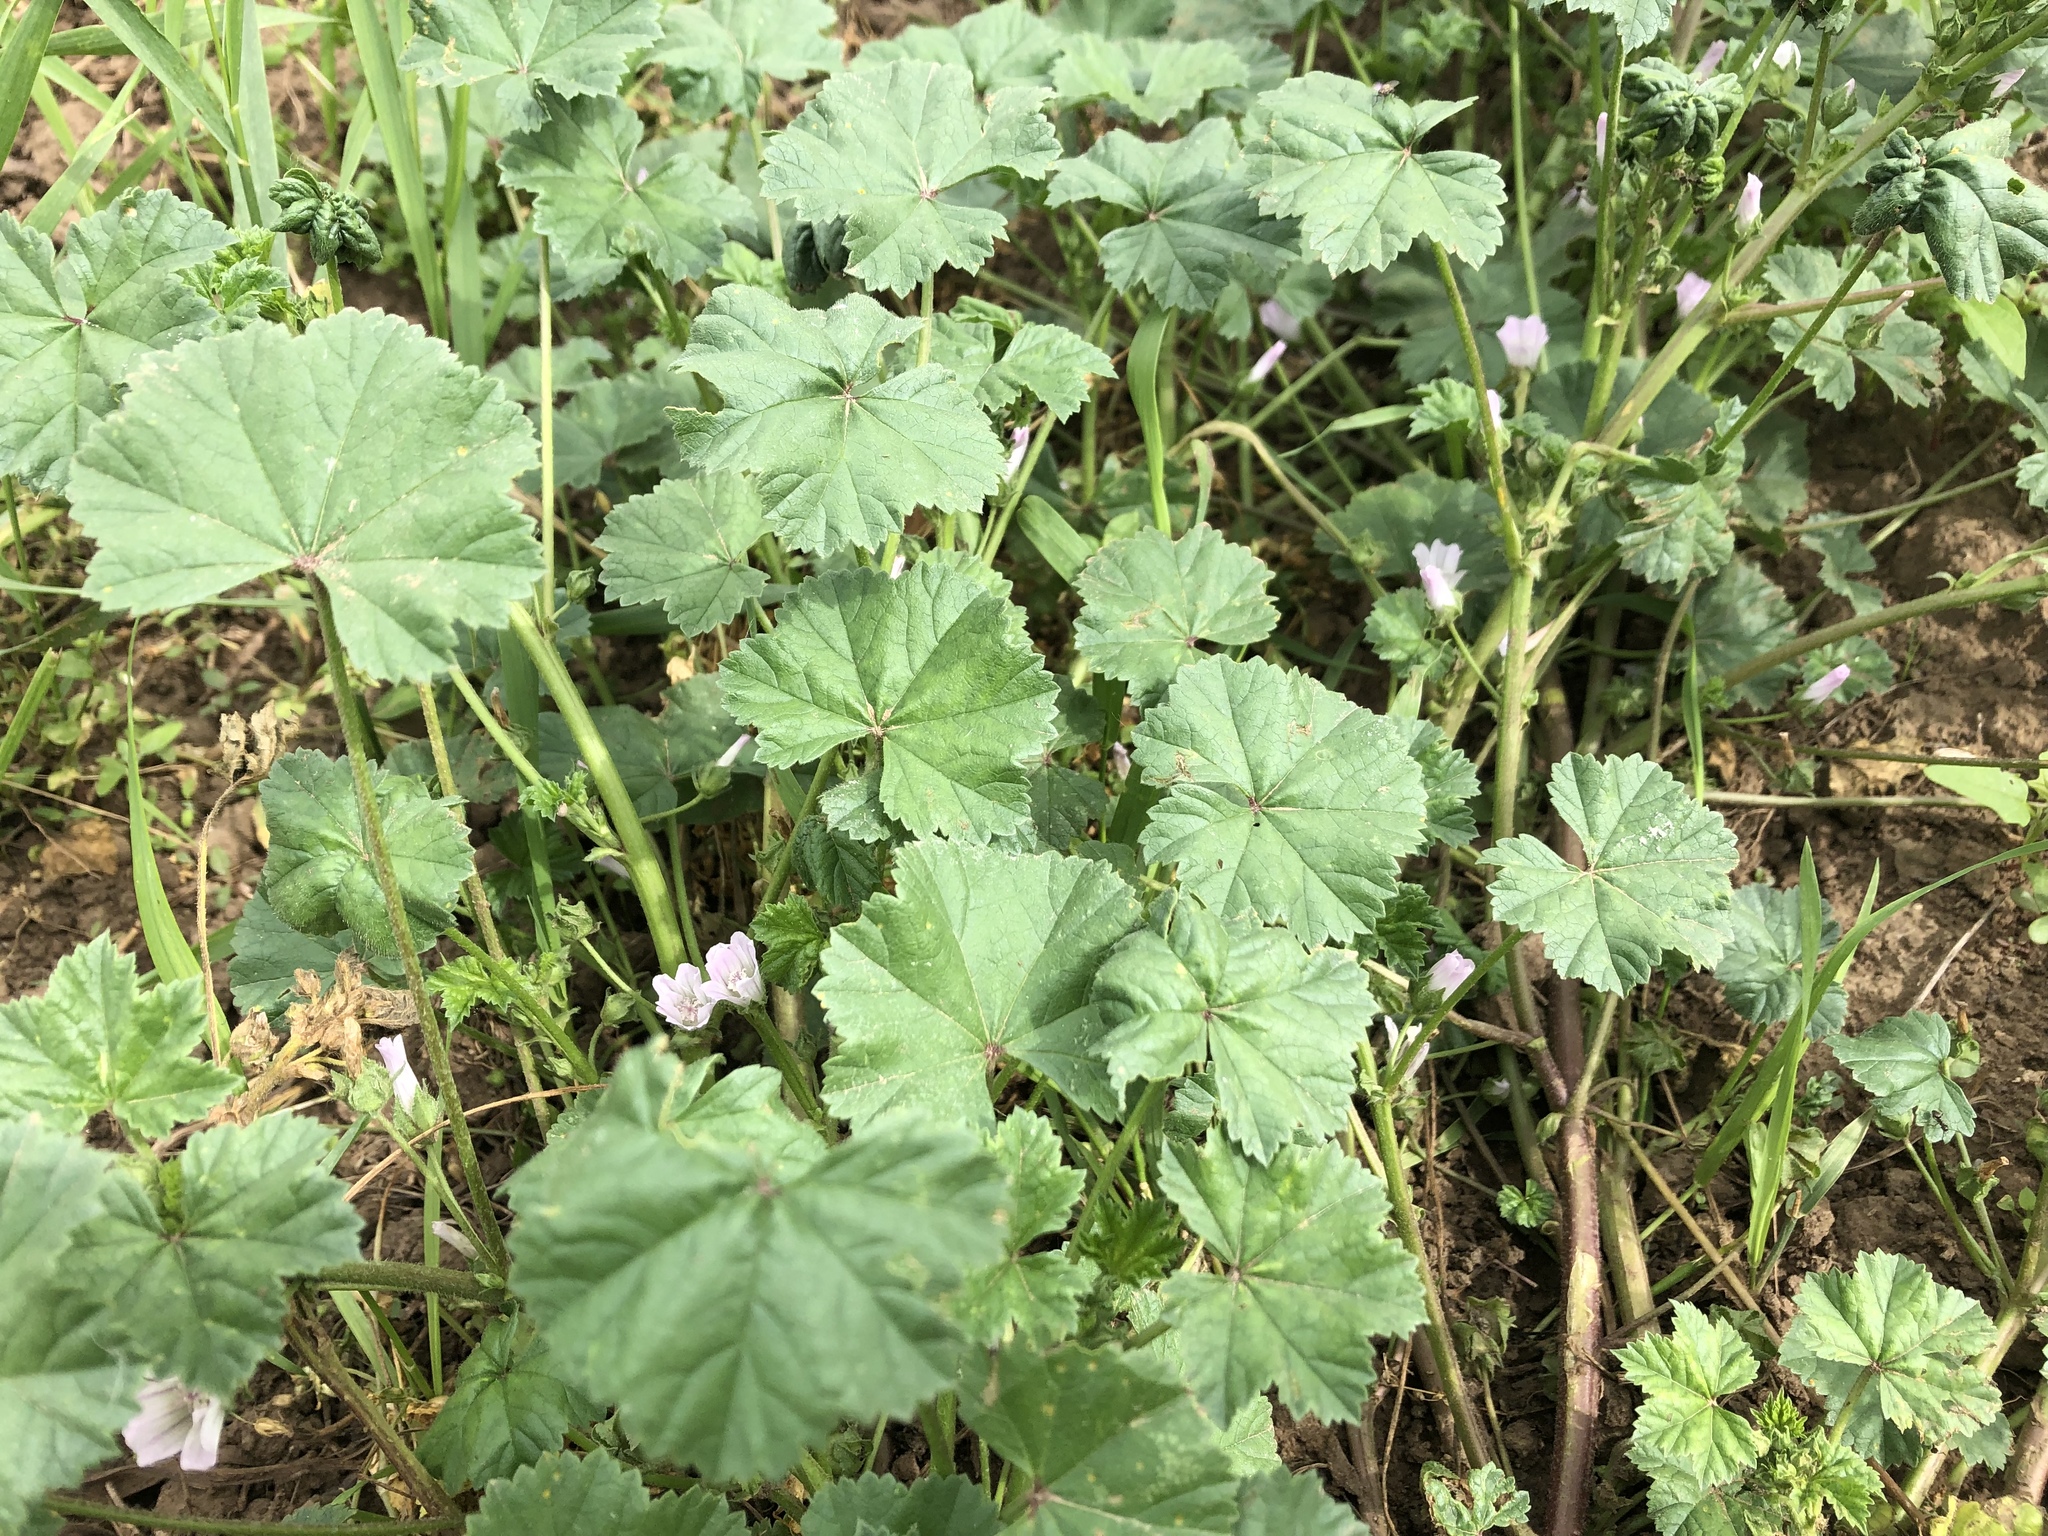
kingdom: Plantae
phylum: Tracheophyta
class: Magnoliopsida
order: Malvales
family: Malvaceae
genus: Malva
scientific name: Malva neglecta
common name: Common mallow
